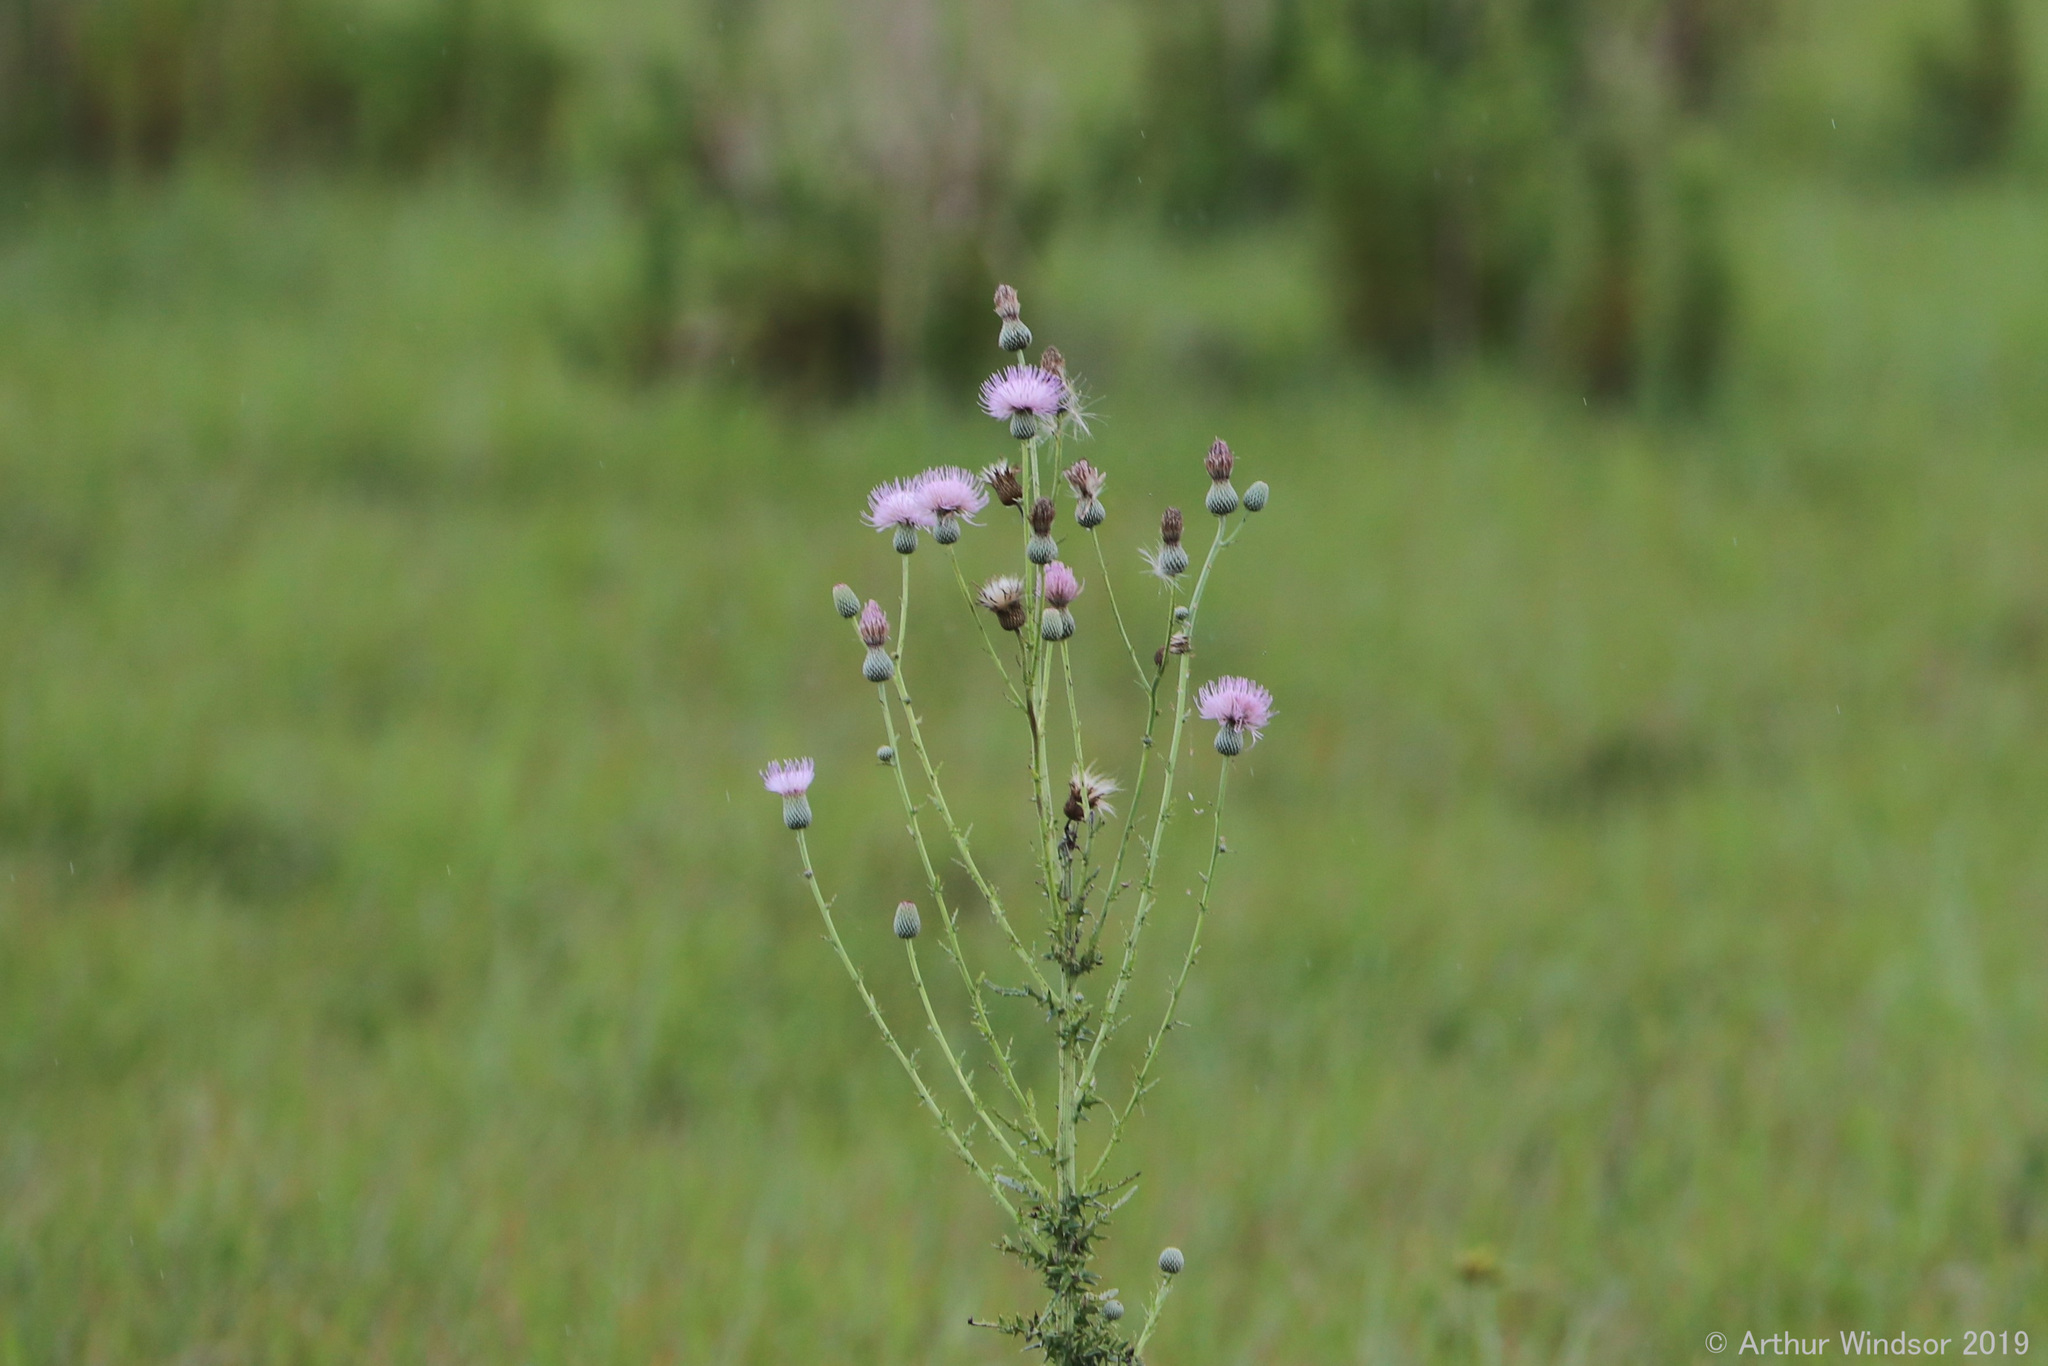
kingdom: Plantae
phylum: Tracheophyta
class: Magnoliopsida
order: Asterales
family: Asteraceae
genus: Cirsium
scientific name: Cirsium nuttalii
